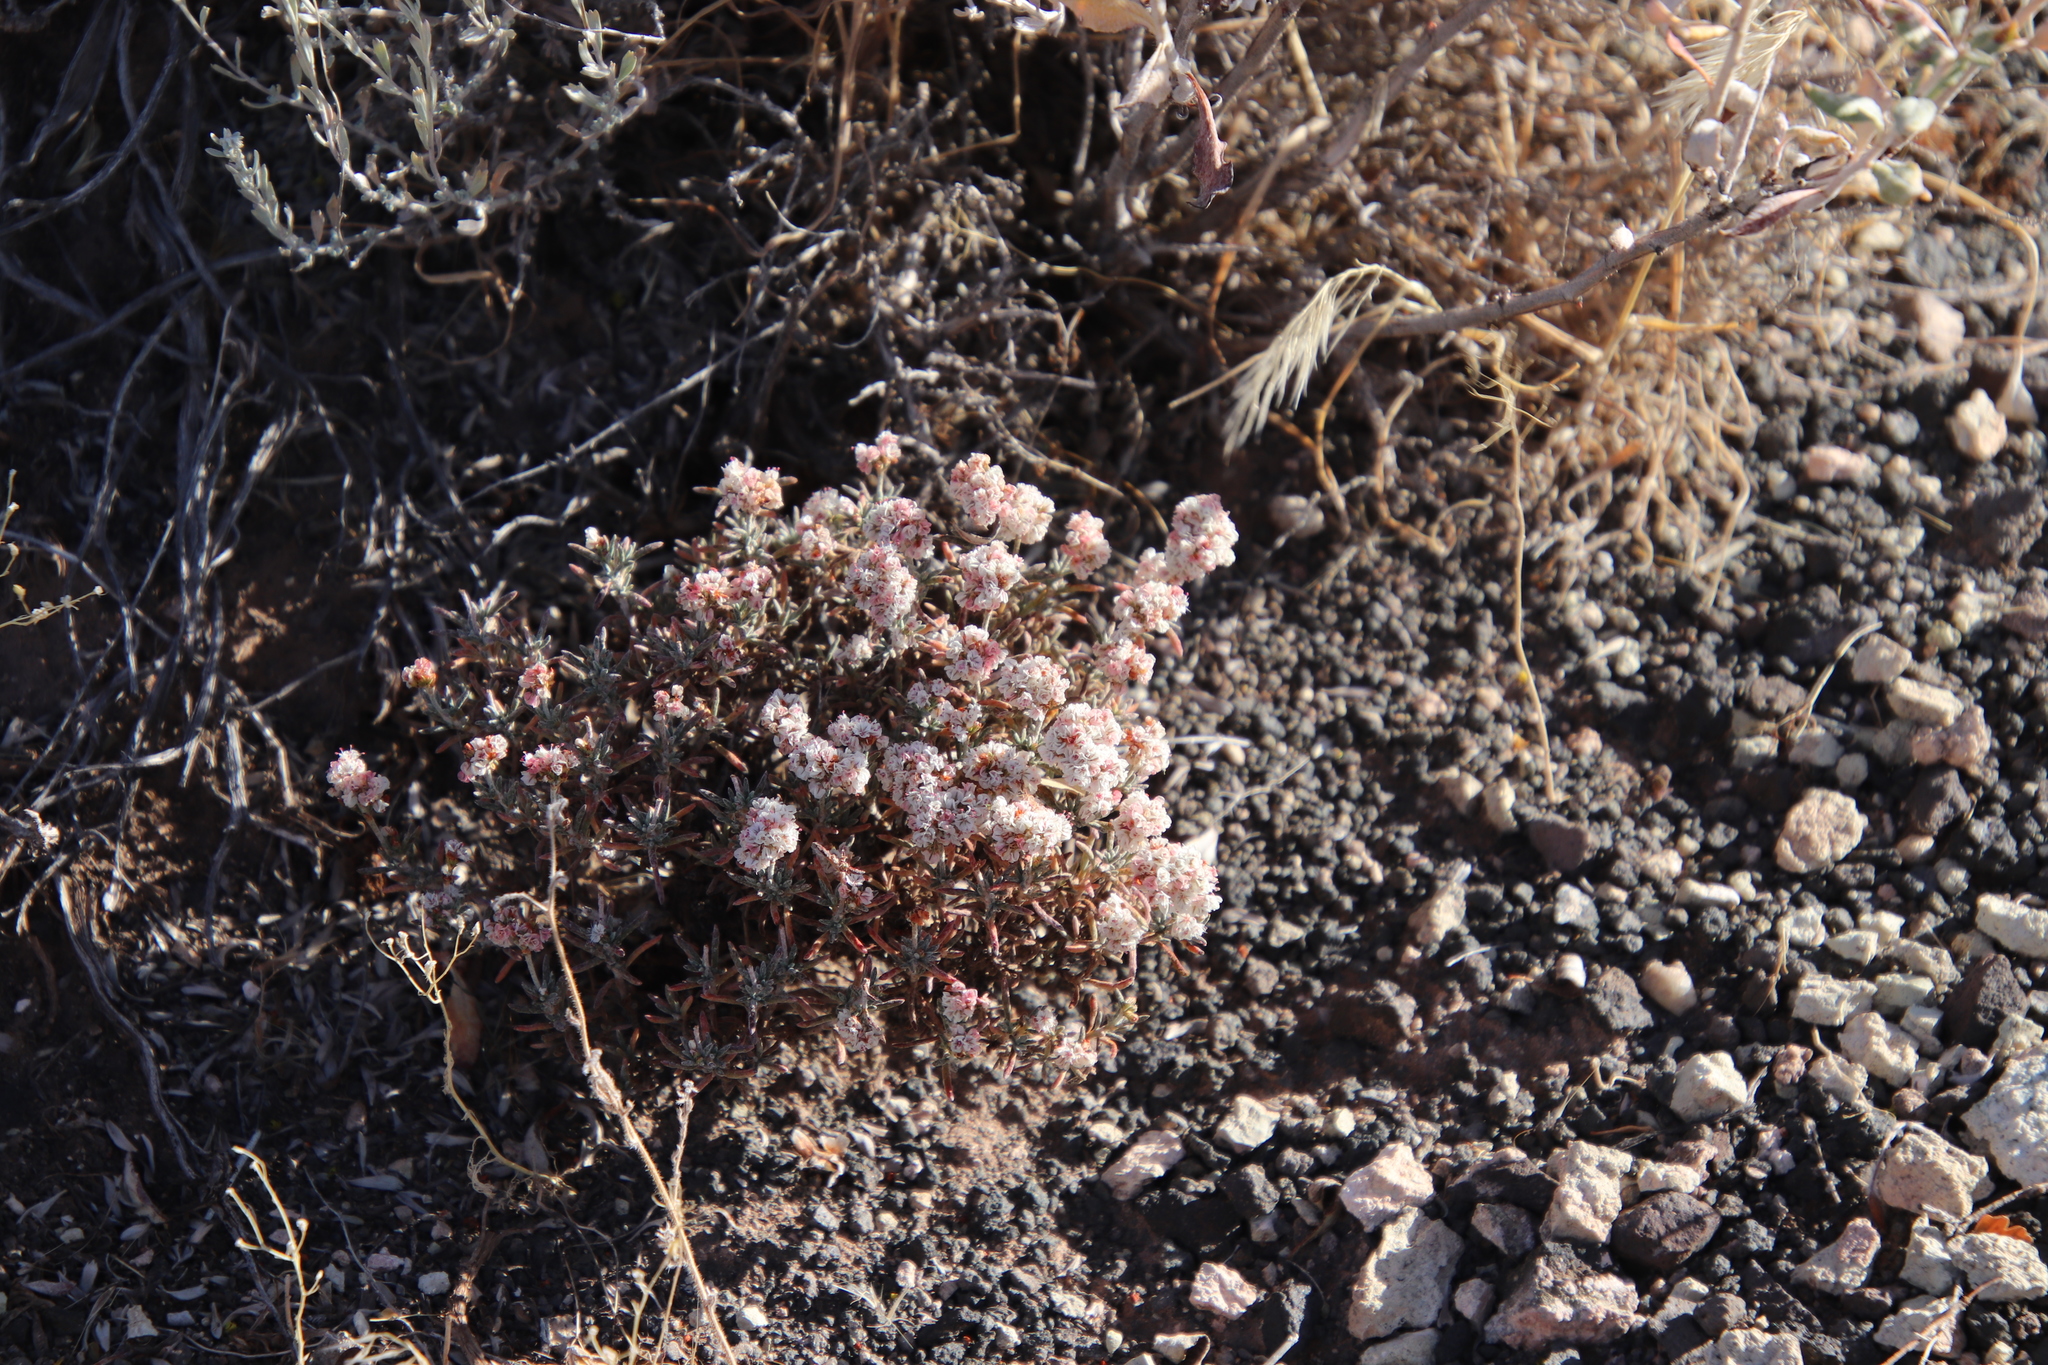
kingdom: Plantae
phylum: Tracheophyta
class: Magnoliopsida
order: Caryophyllales
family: Polygonaceae
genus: Eriogonum
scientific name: Eriogonum pulchrum
